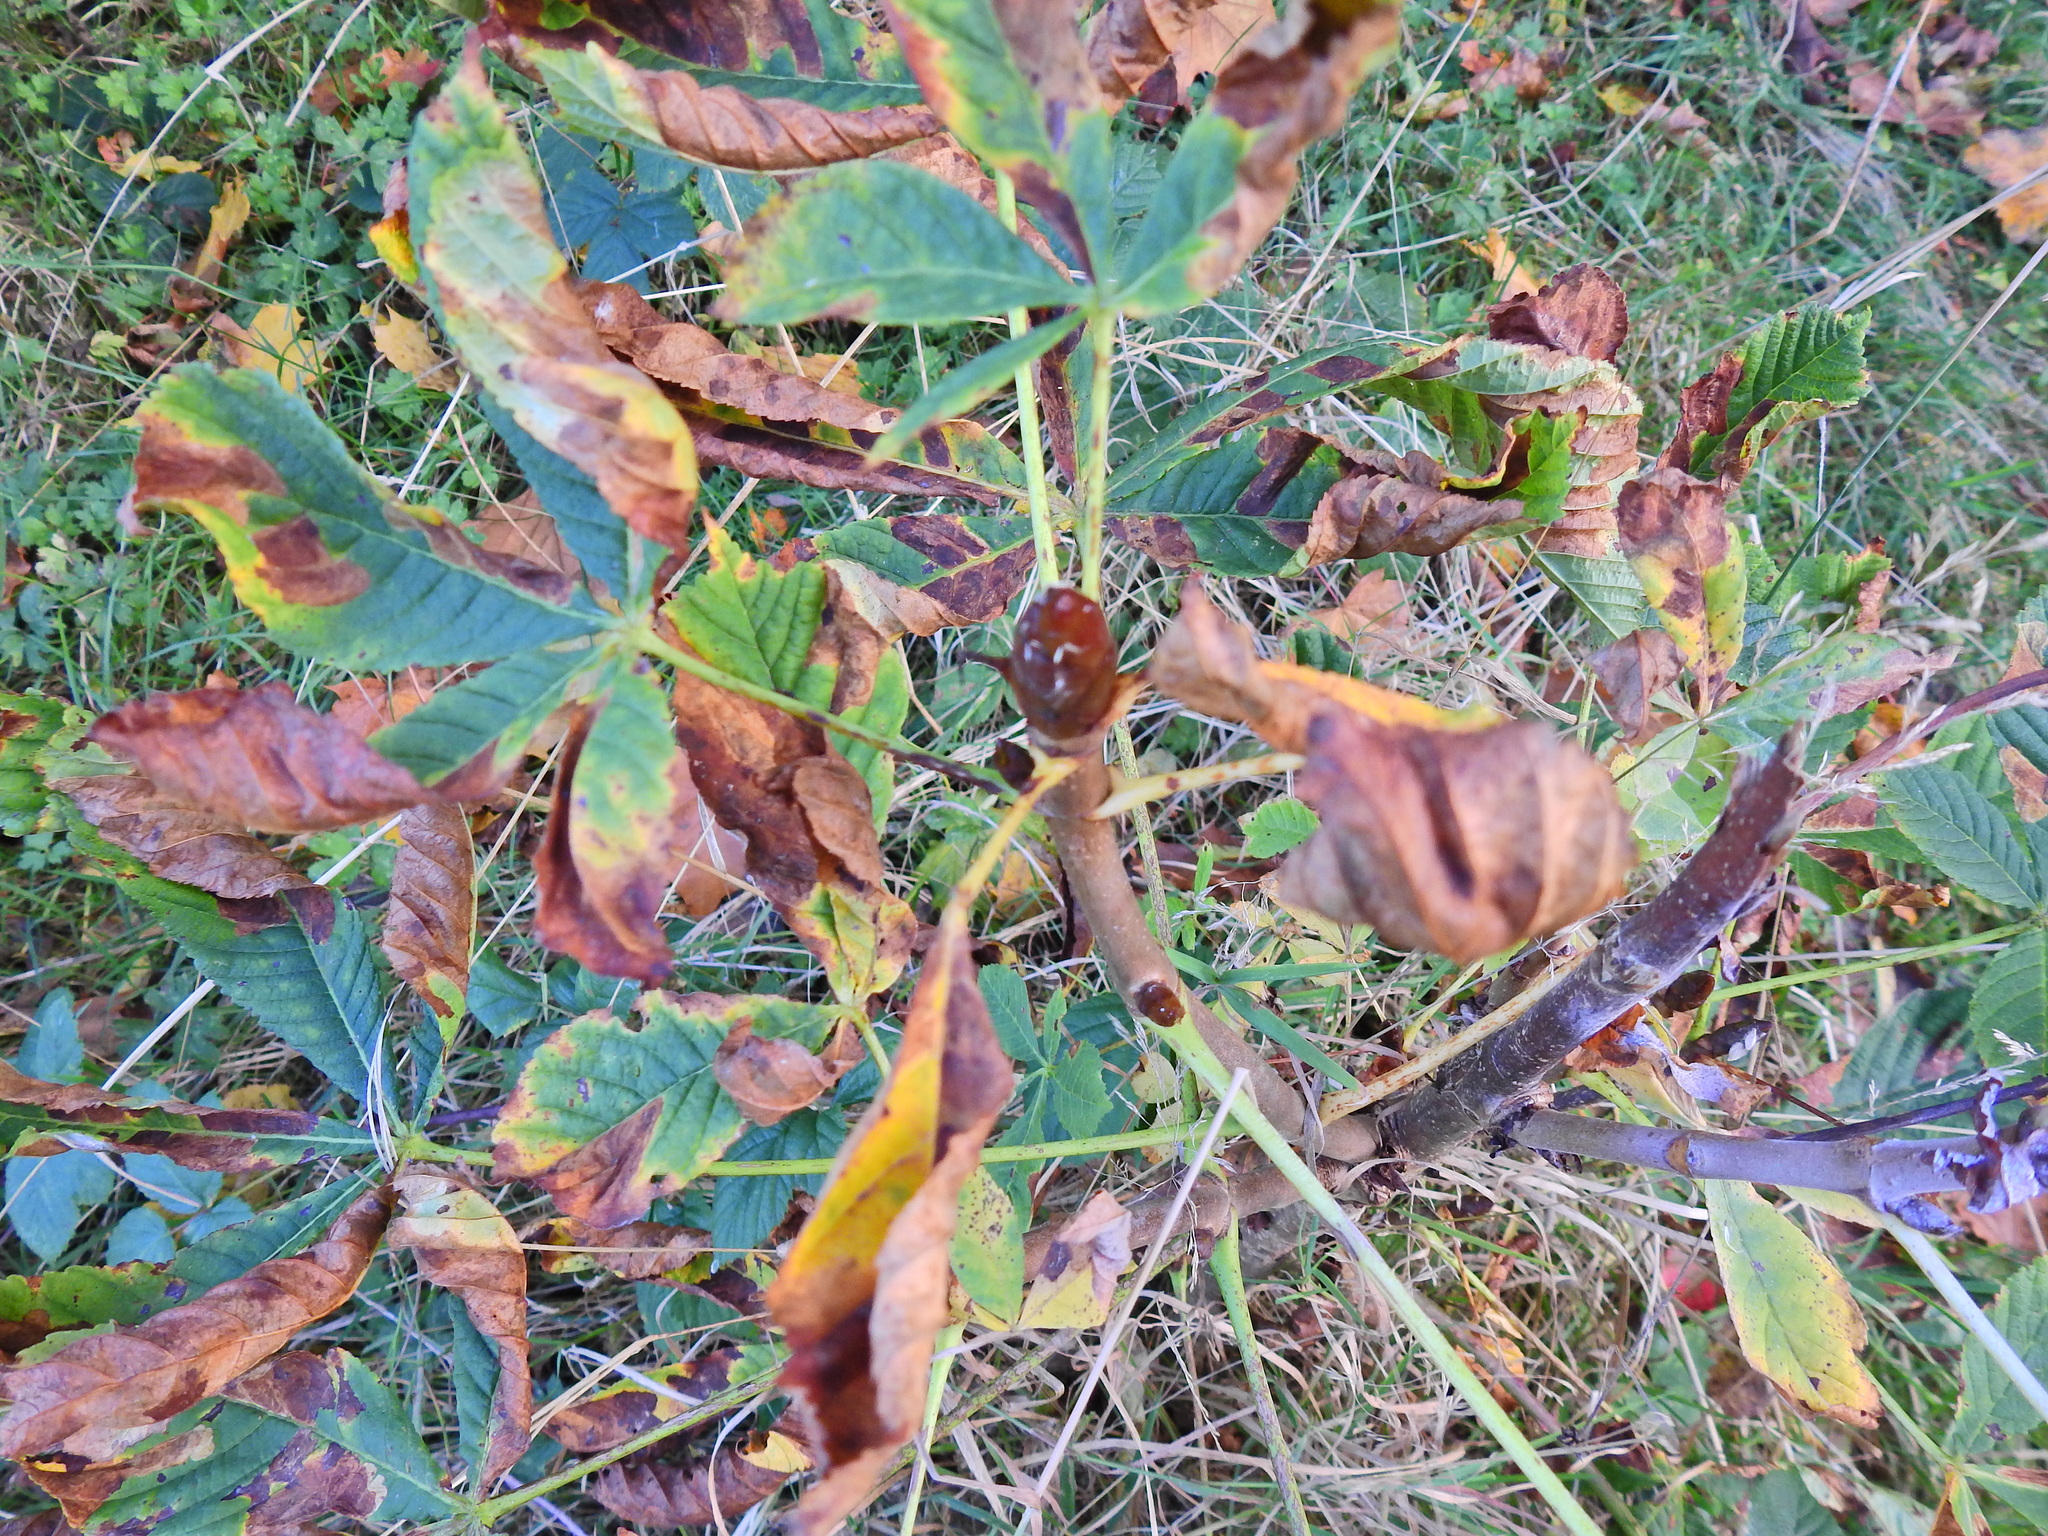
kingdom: Plantae
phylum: Tracheophyta
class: Magnoliopsida
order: Sapindales
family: Sapindaceae
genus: Aesculus
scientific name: Aesculus hippocastanum
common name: Horse-chestnut
